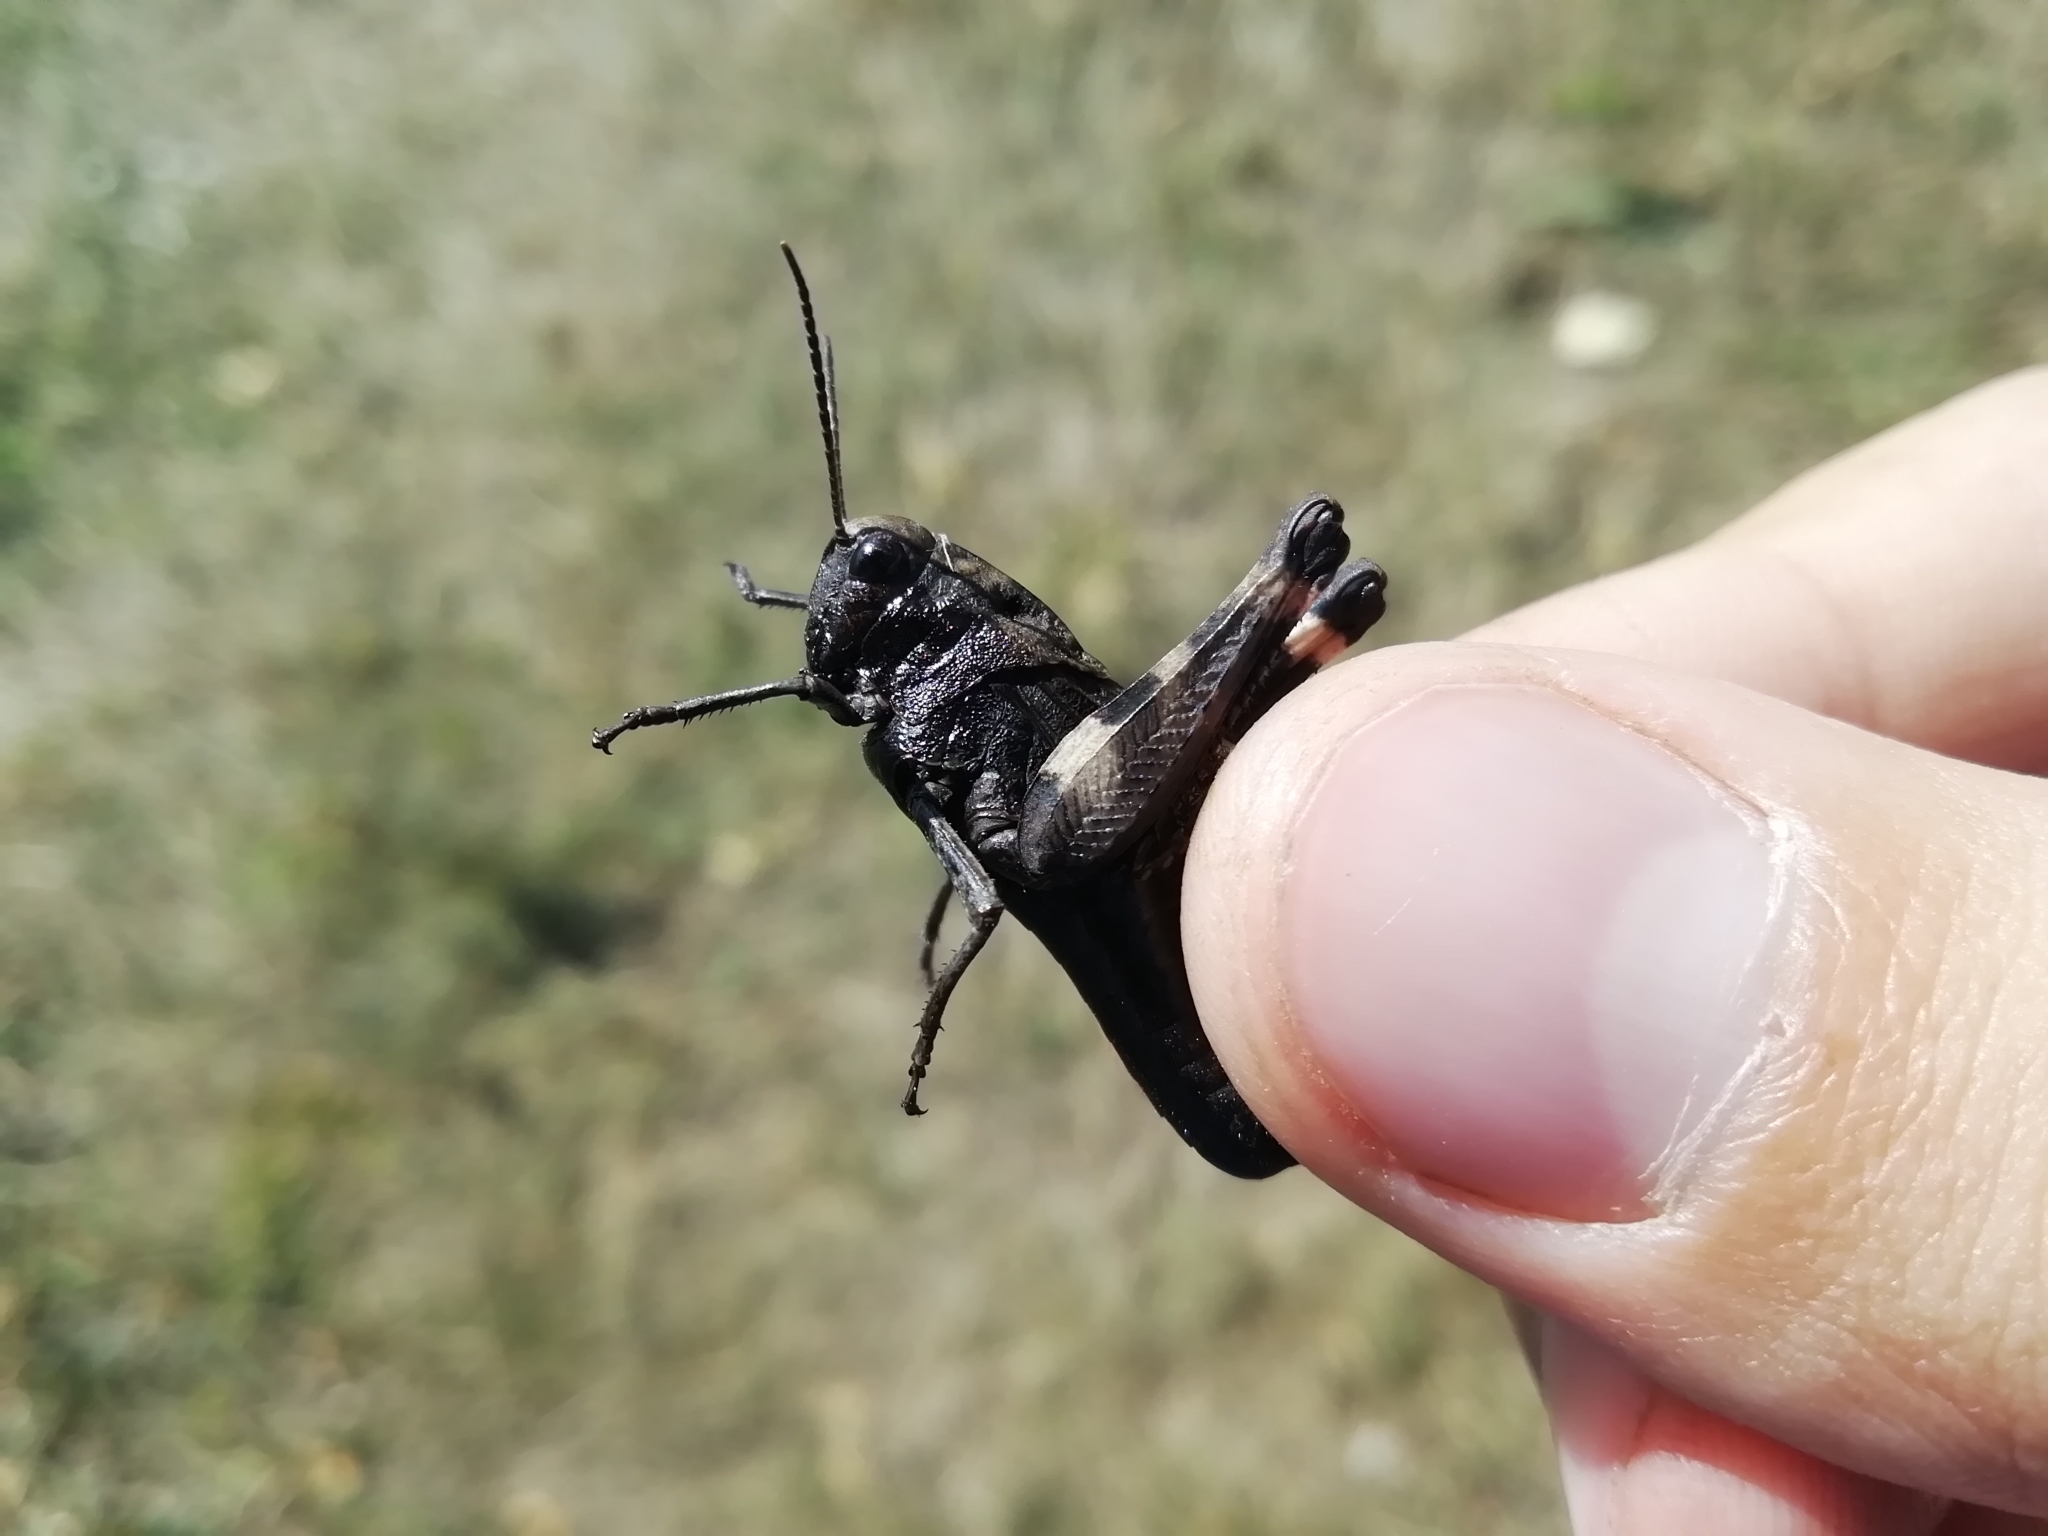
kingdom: Animalia
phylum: Arthropoda
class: Insecta
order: Orthoptera
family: Acrididae
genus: Psophus
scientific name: Psophus stridulus
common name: Rattle grasshopper
